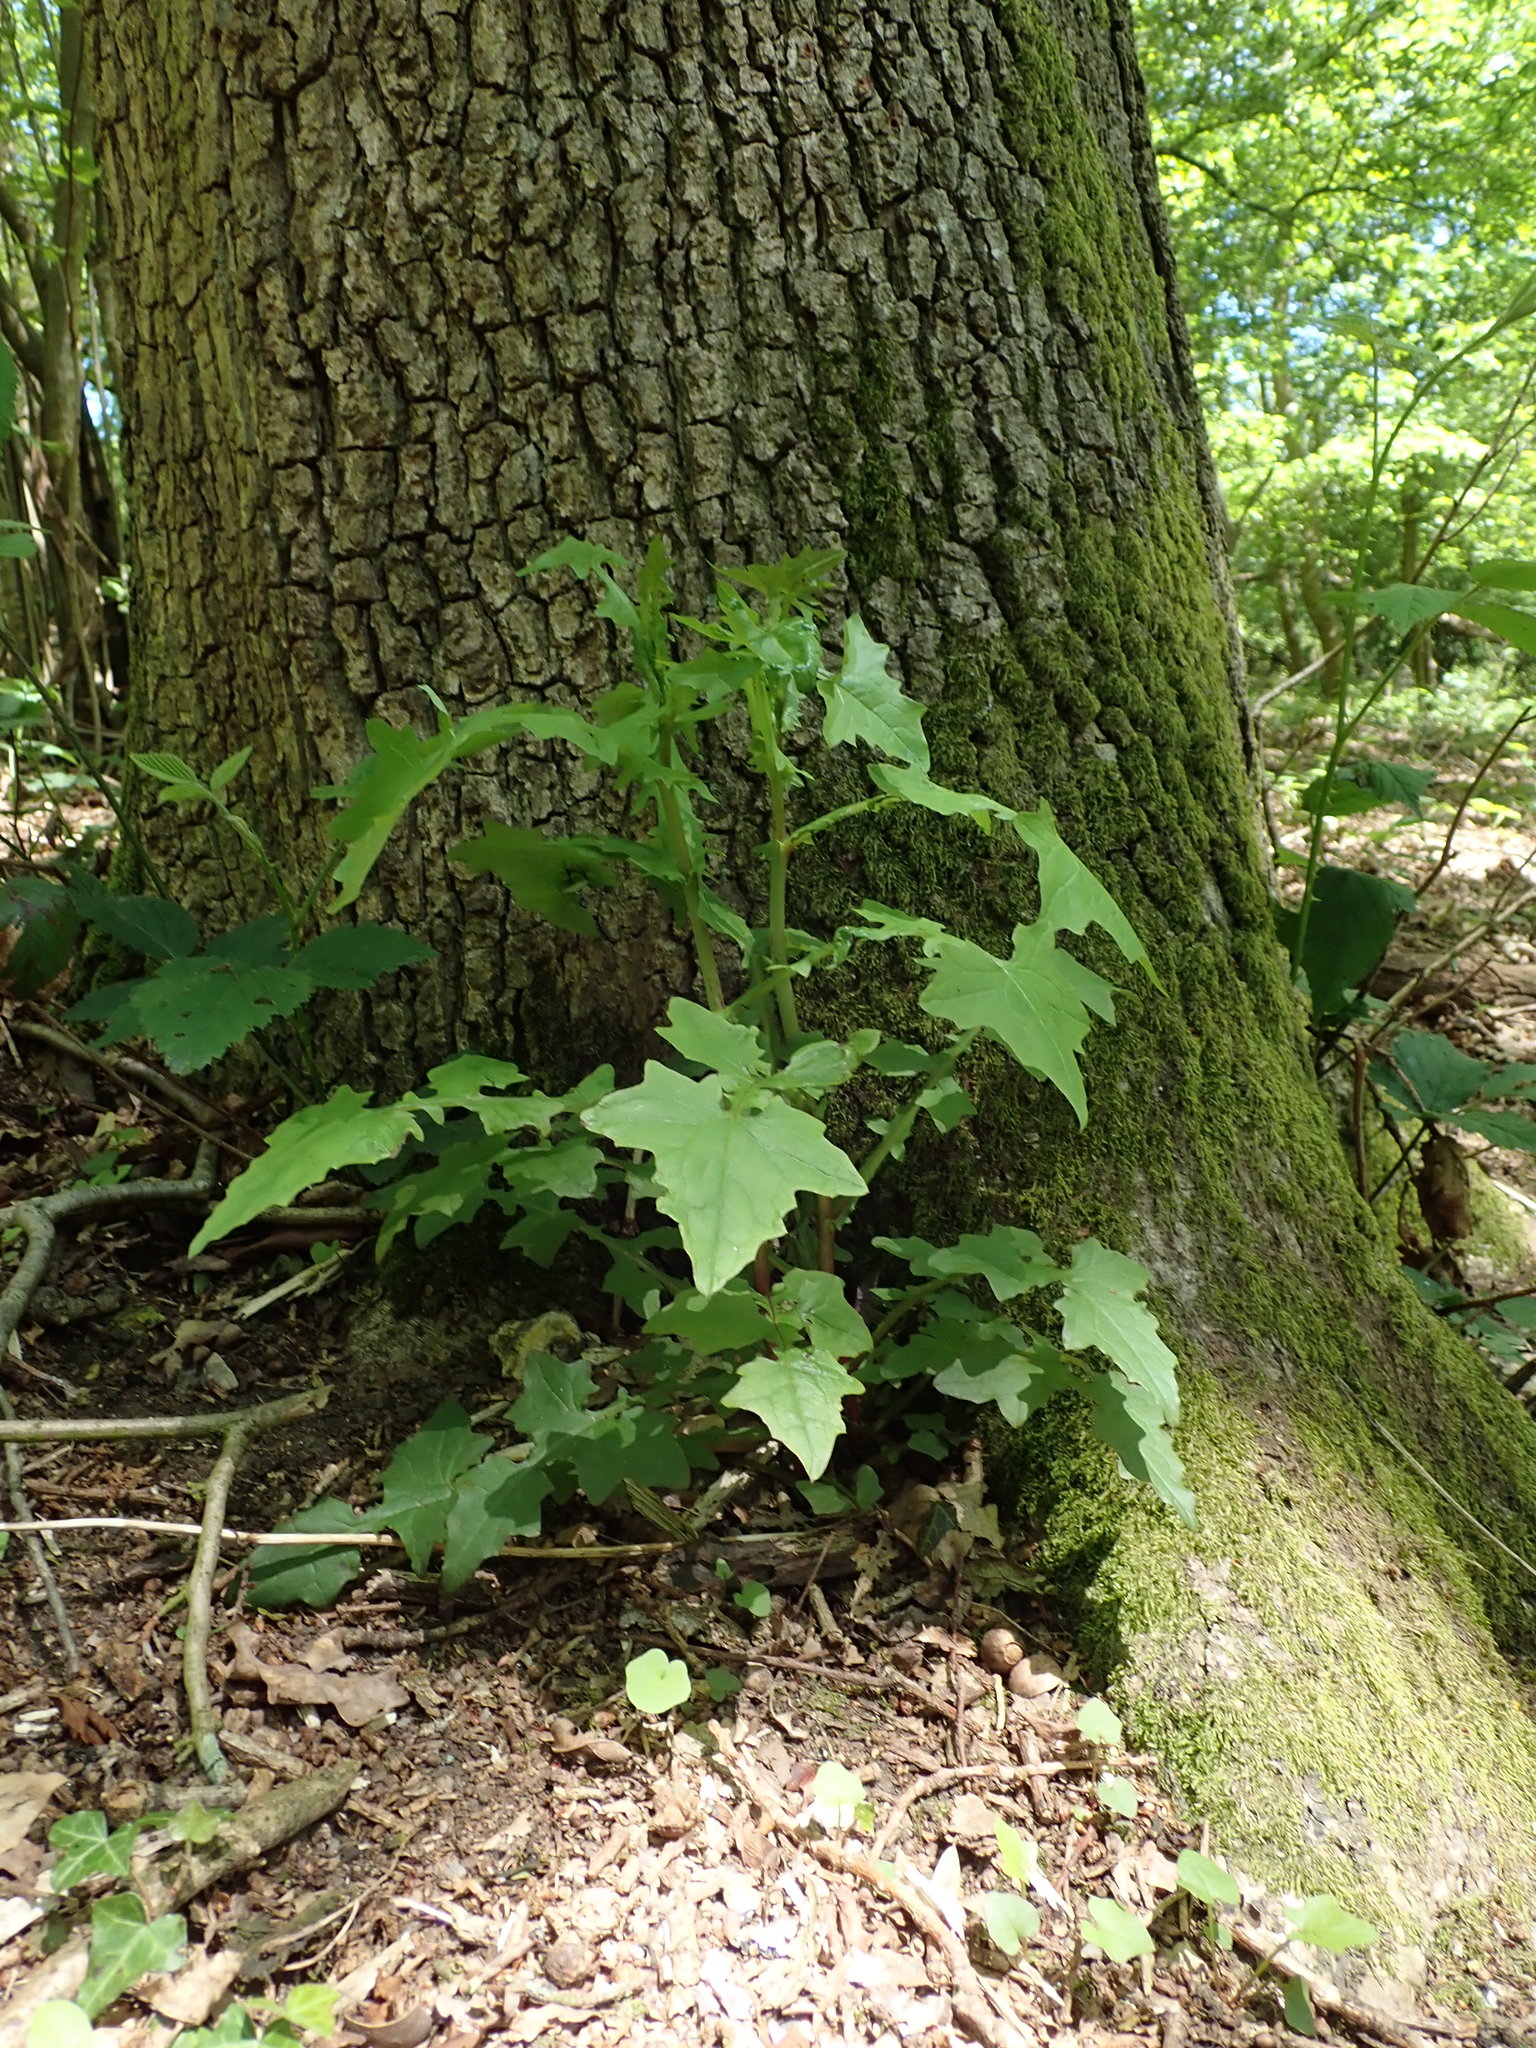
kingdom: Plantae
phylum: Tracheophyta
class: Magnoliopsida
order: Asterales
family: Asteraceae
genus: Mycelis
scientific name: Mycelis muralis
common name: Wall lettuce
